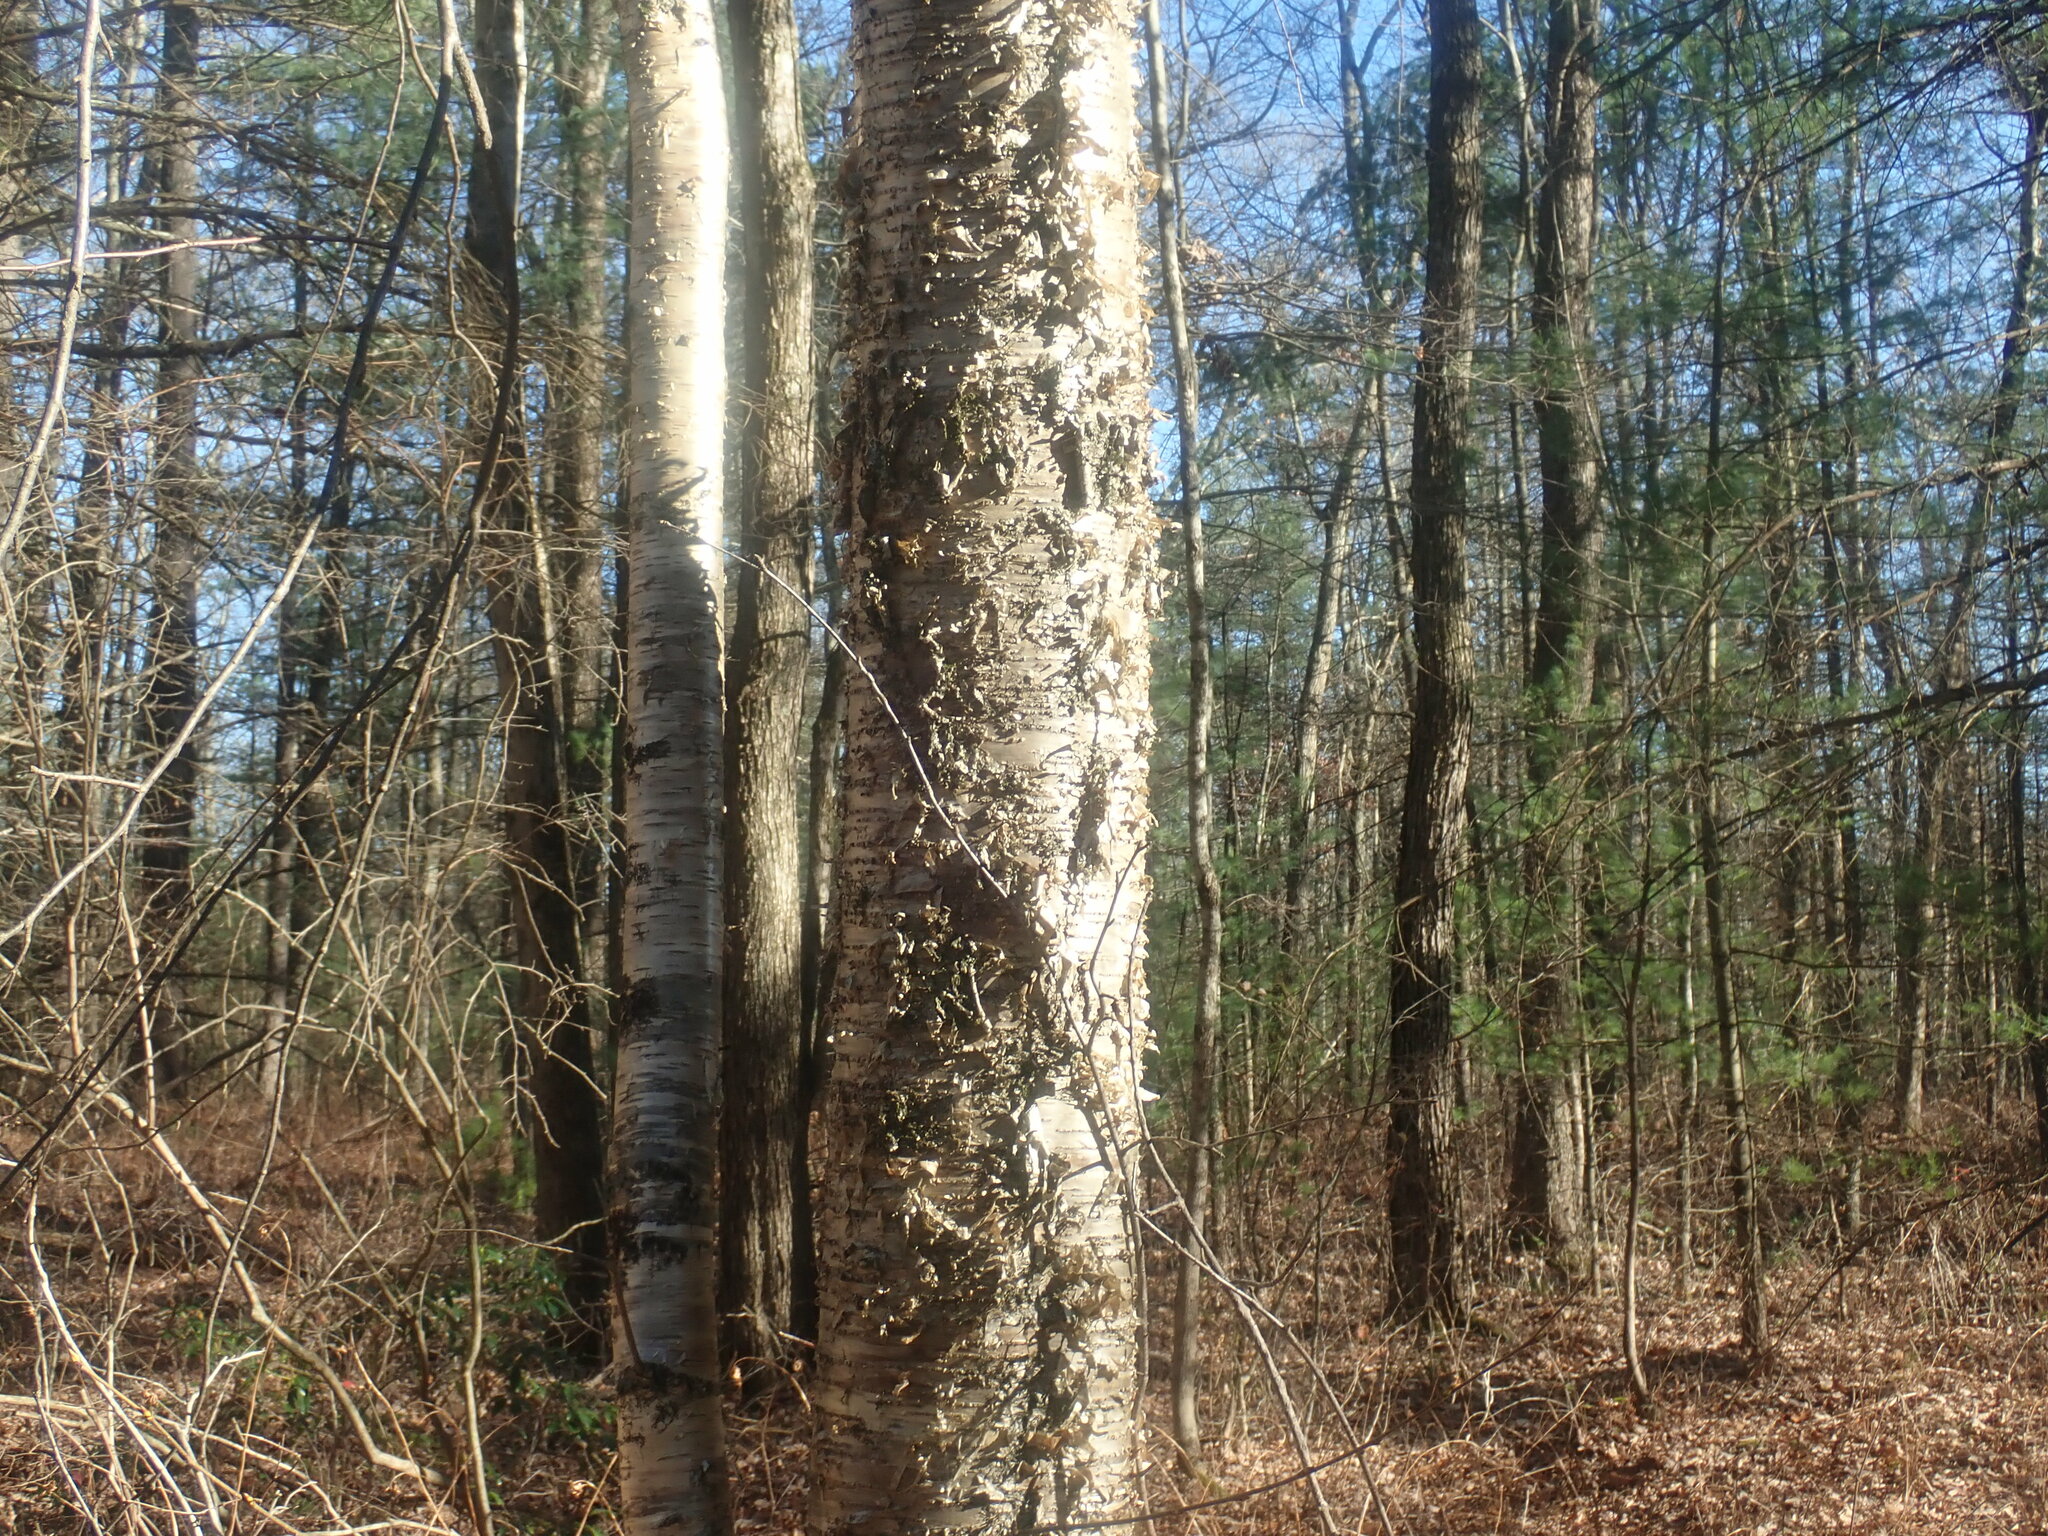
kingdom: Plantae
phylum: Tracheophyta
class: Magnoliopsida
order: Fagales
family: Betulaceae
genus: Betula
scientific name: Betula alleghaniensis
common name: Yellow birch
